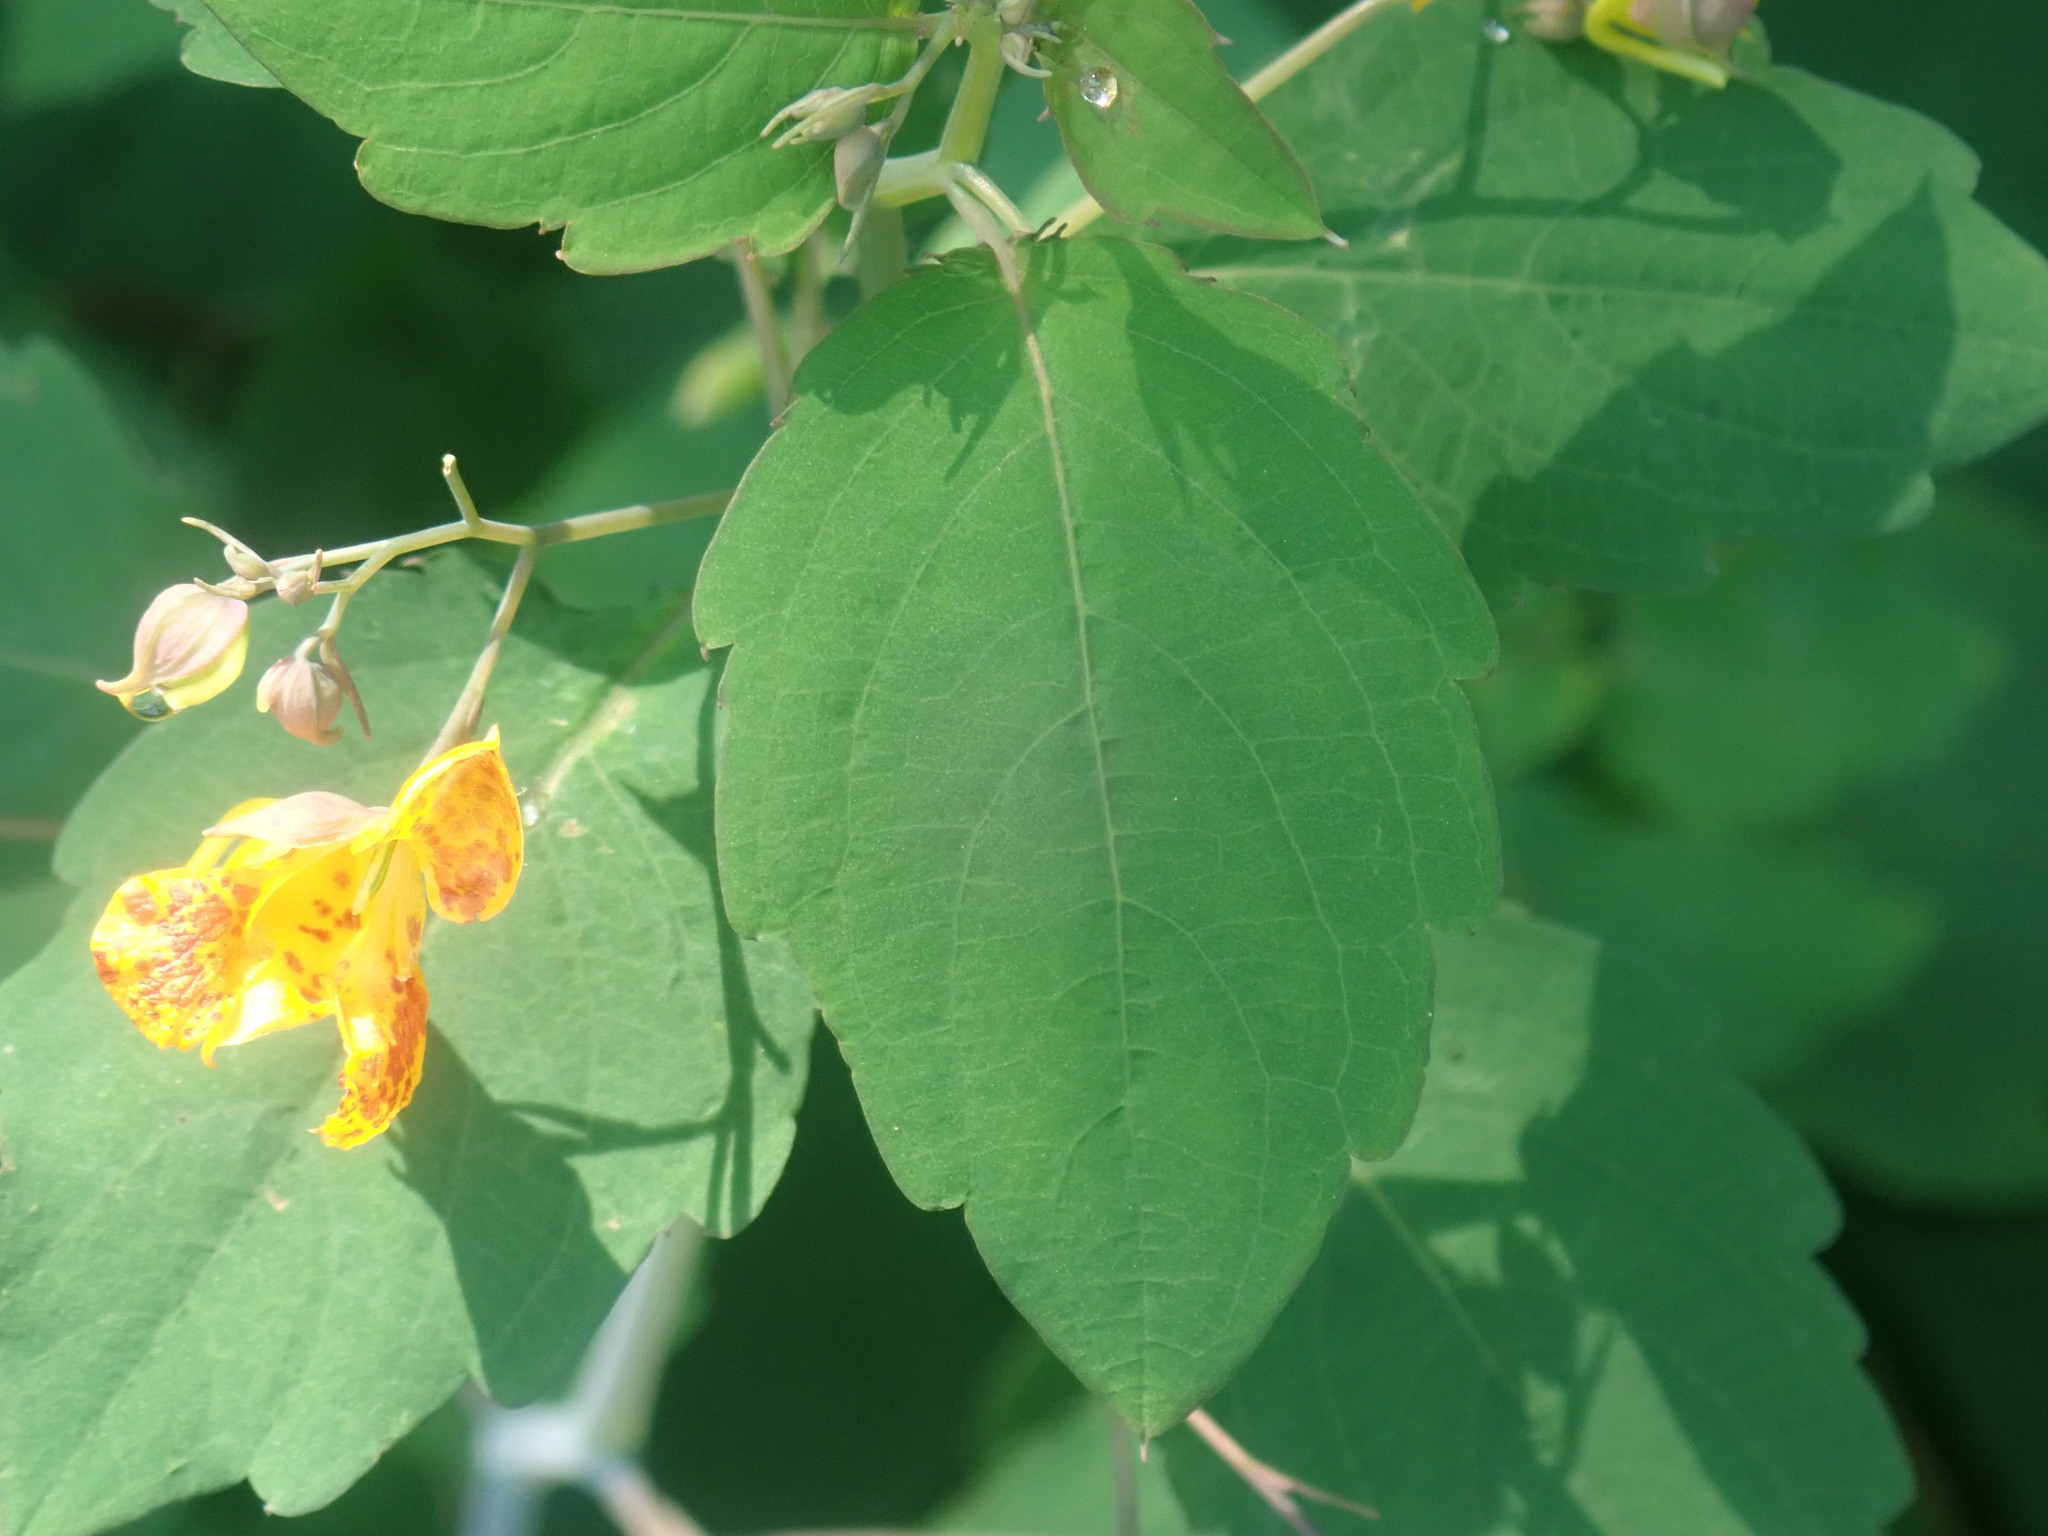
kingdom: Plantae
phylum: Tracheophyta
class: Magnoliopsida
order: Ericales
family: Balsaminaceae
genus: Impatiens
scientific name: Impatiens capensis
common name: Orange balsam
